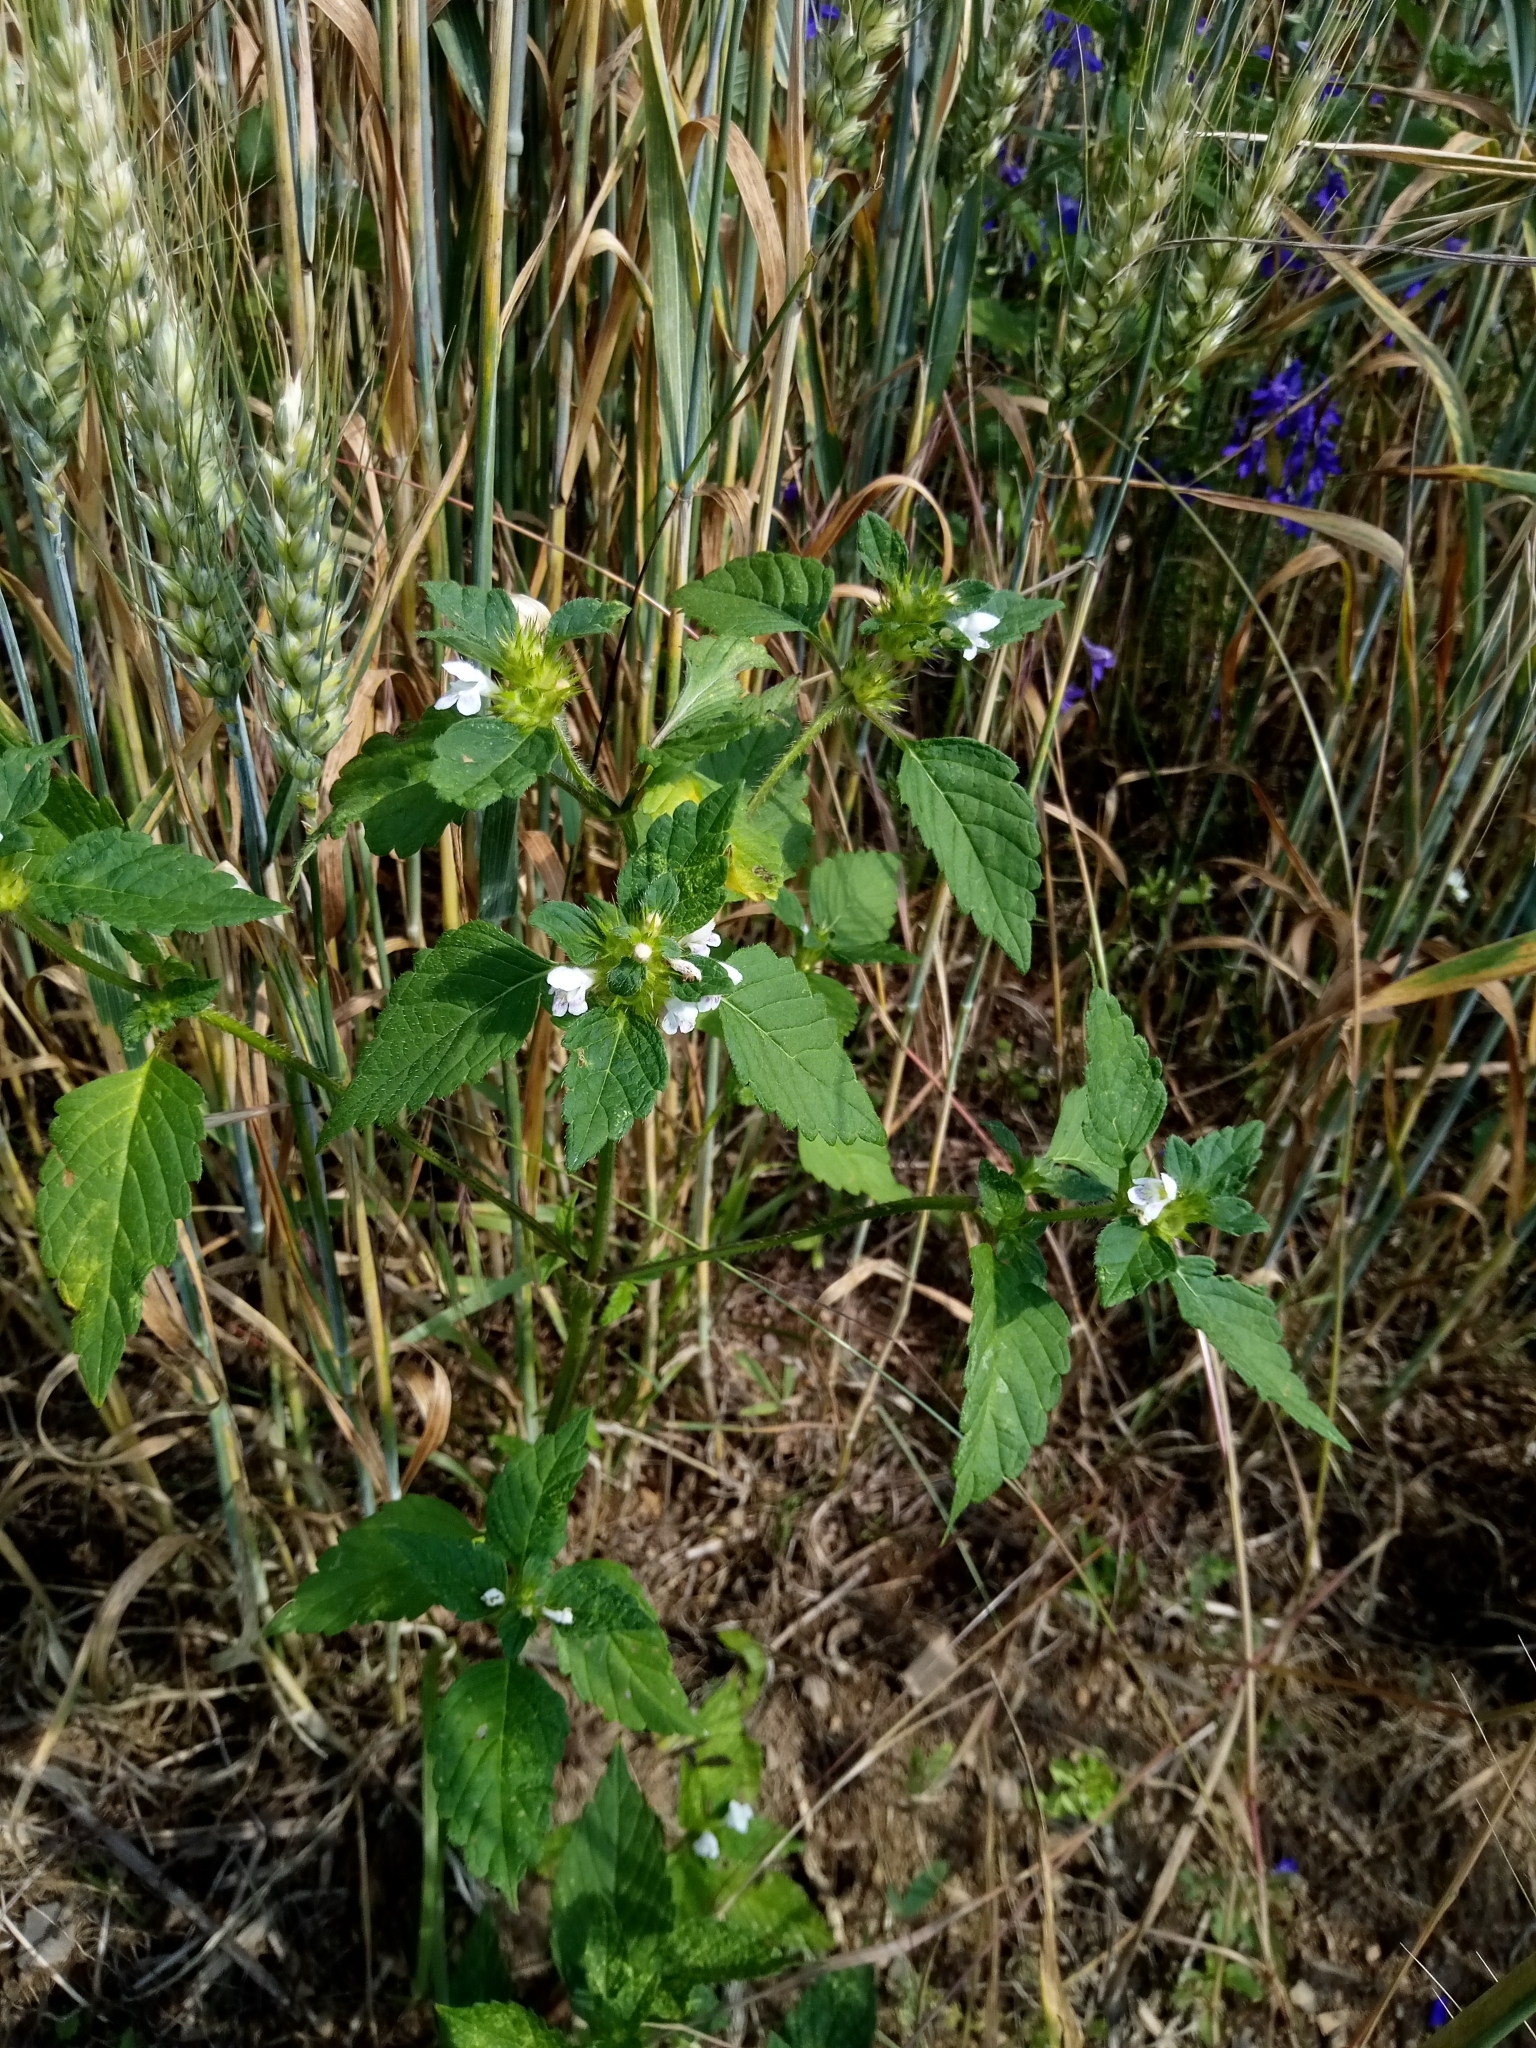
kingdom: Plantae
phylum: Tracheophyta
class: Magnoliopsida
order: Lamiales
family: Lamiaceae
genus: Galeopsis
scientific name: Galeopsis tetrahit
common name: Common hemp-nettle
